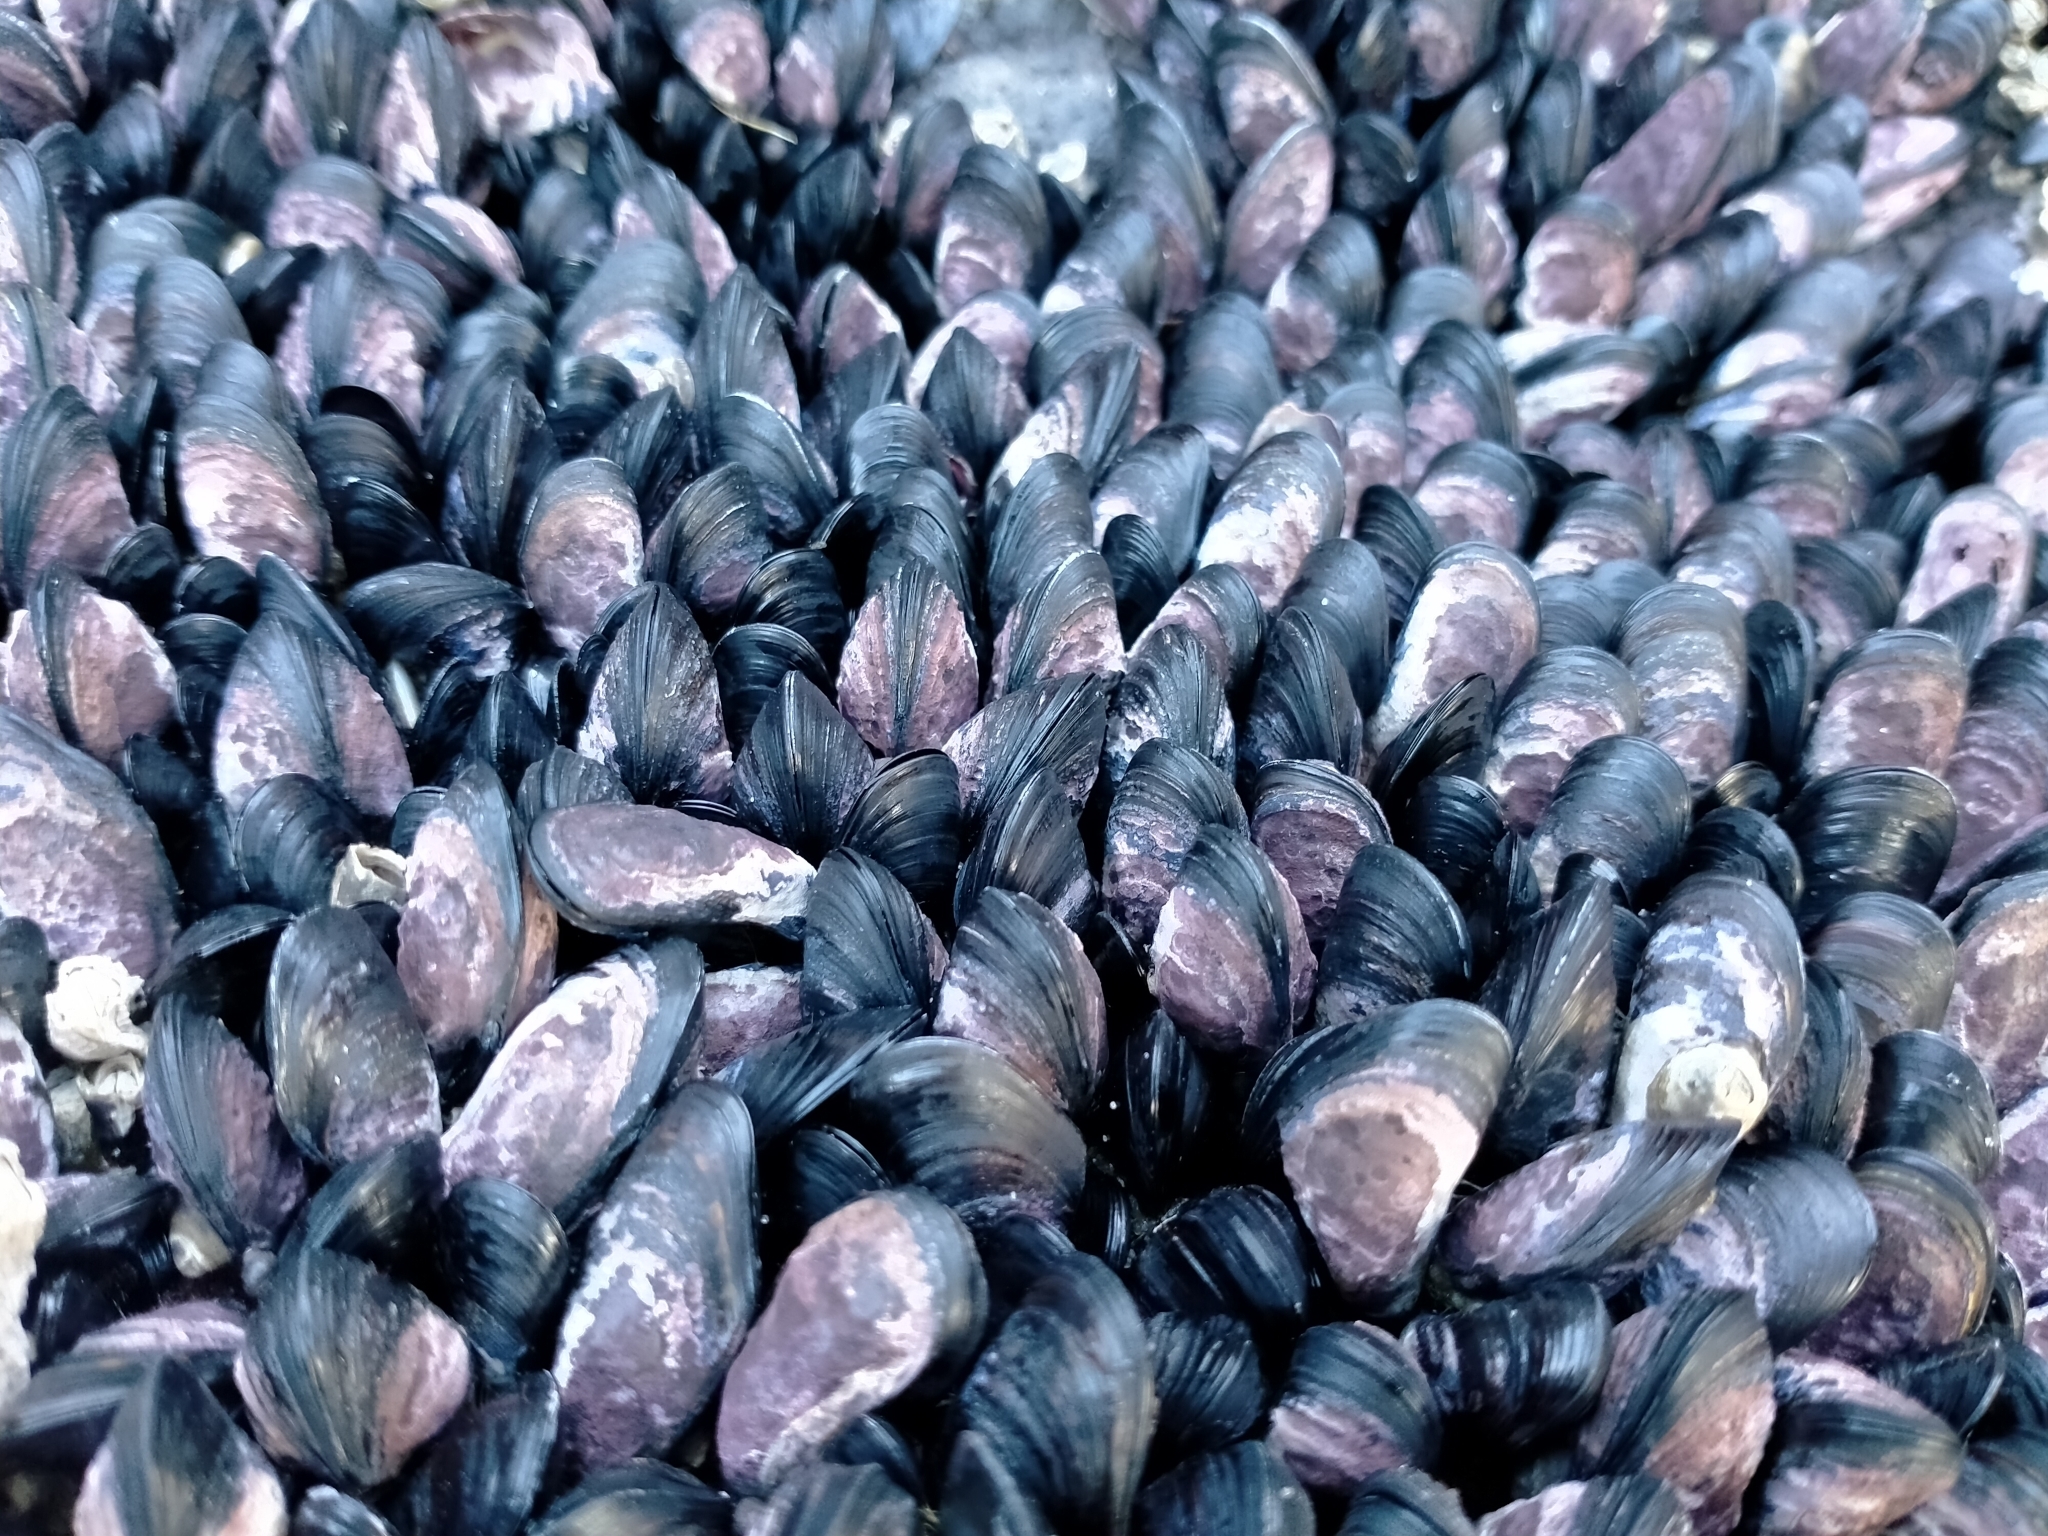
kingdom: Animalia
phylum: Mollusca
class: Bivalvia
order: Mytilida
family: Mytilidae
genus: Xenostrobus
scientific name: Xenostrobus neozelanicus
